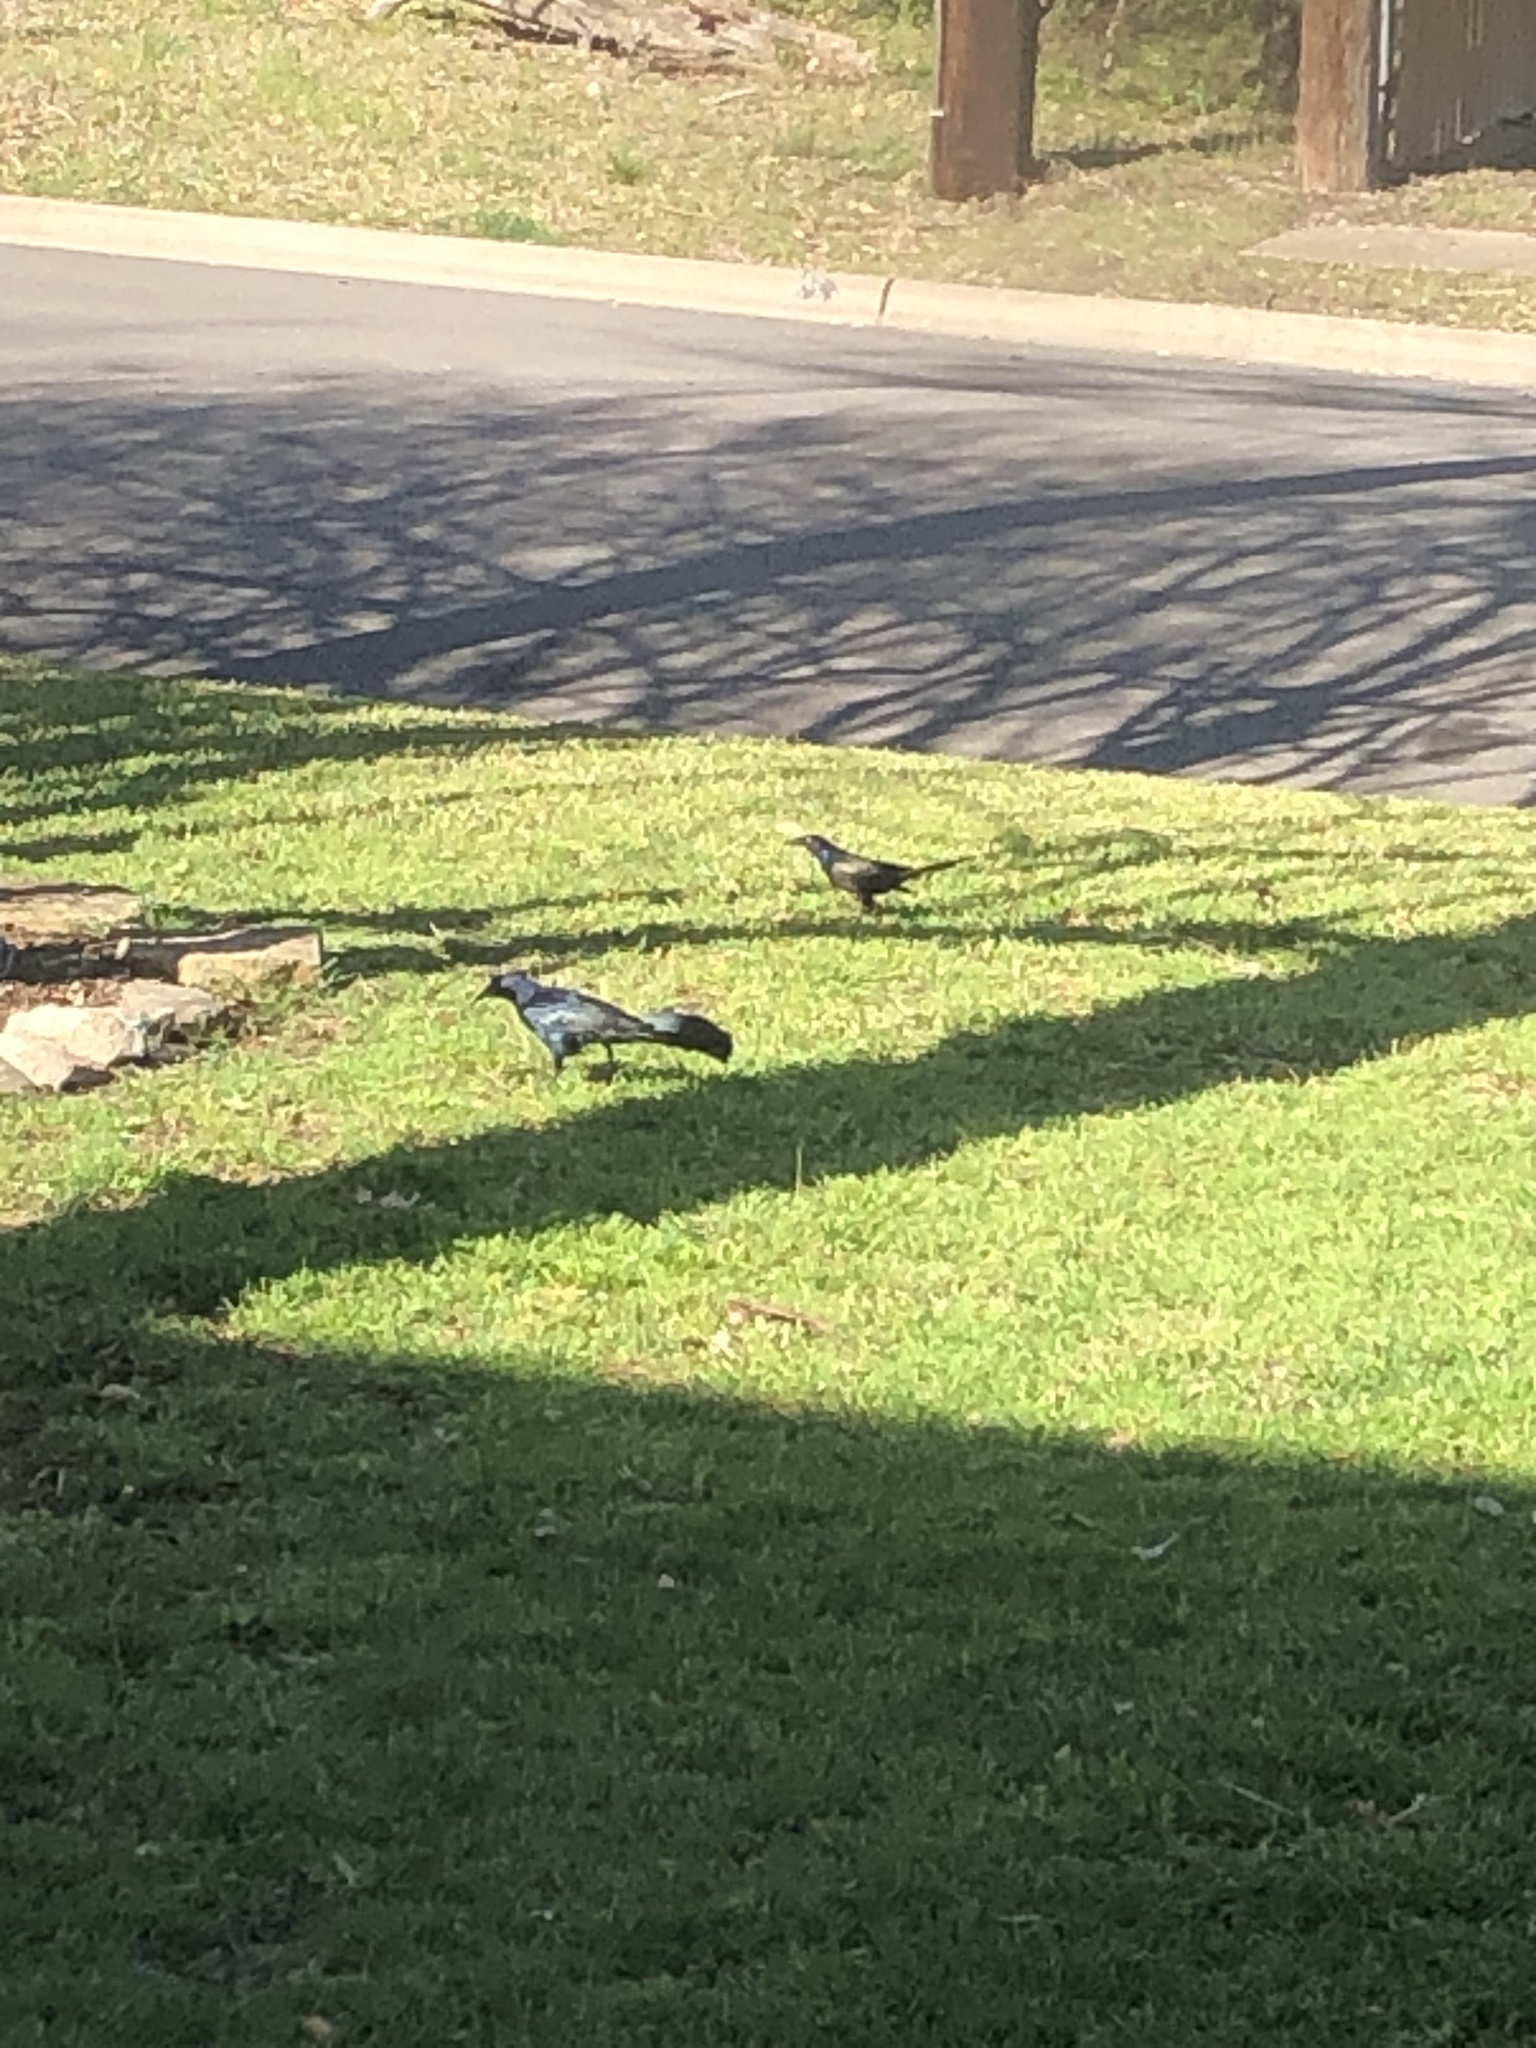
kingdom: Animalia
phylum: Chordata
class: Aves
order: Passeriformes
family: Icteridae
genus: Quiscalus
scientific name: Quiscalus mexicanus
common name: Great-tailed grackle
